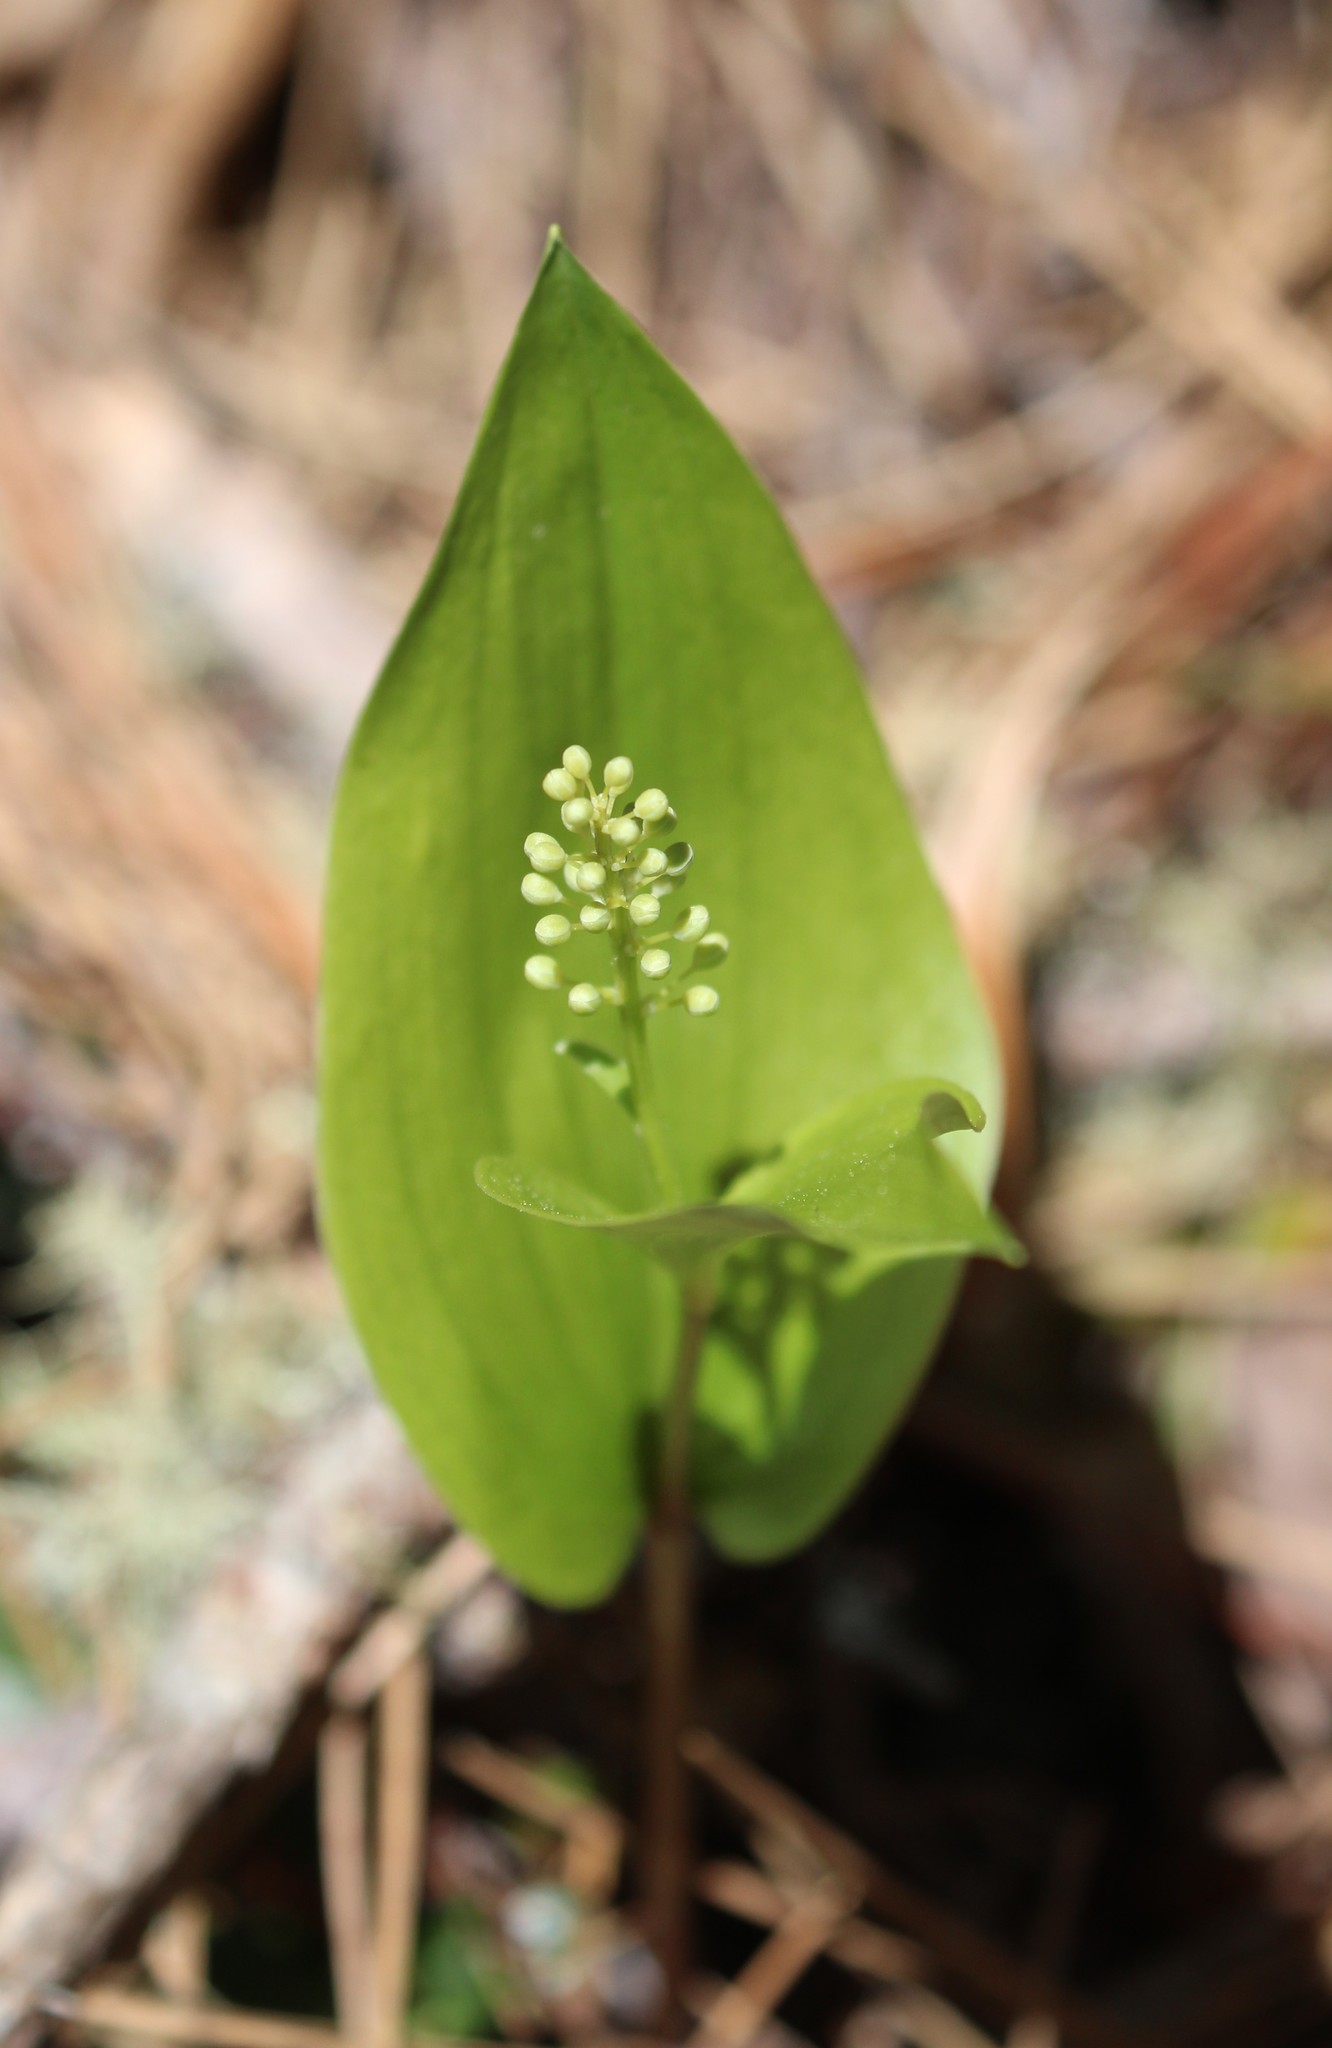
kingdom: Plantae
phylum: Tracheophyta
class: Liliopsida
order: Asparagales
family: Asparagaceae
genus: Maianthemum
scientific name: Maianthemum canadense
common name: False lily-of-the-valley
